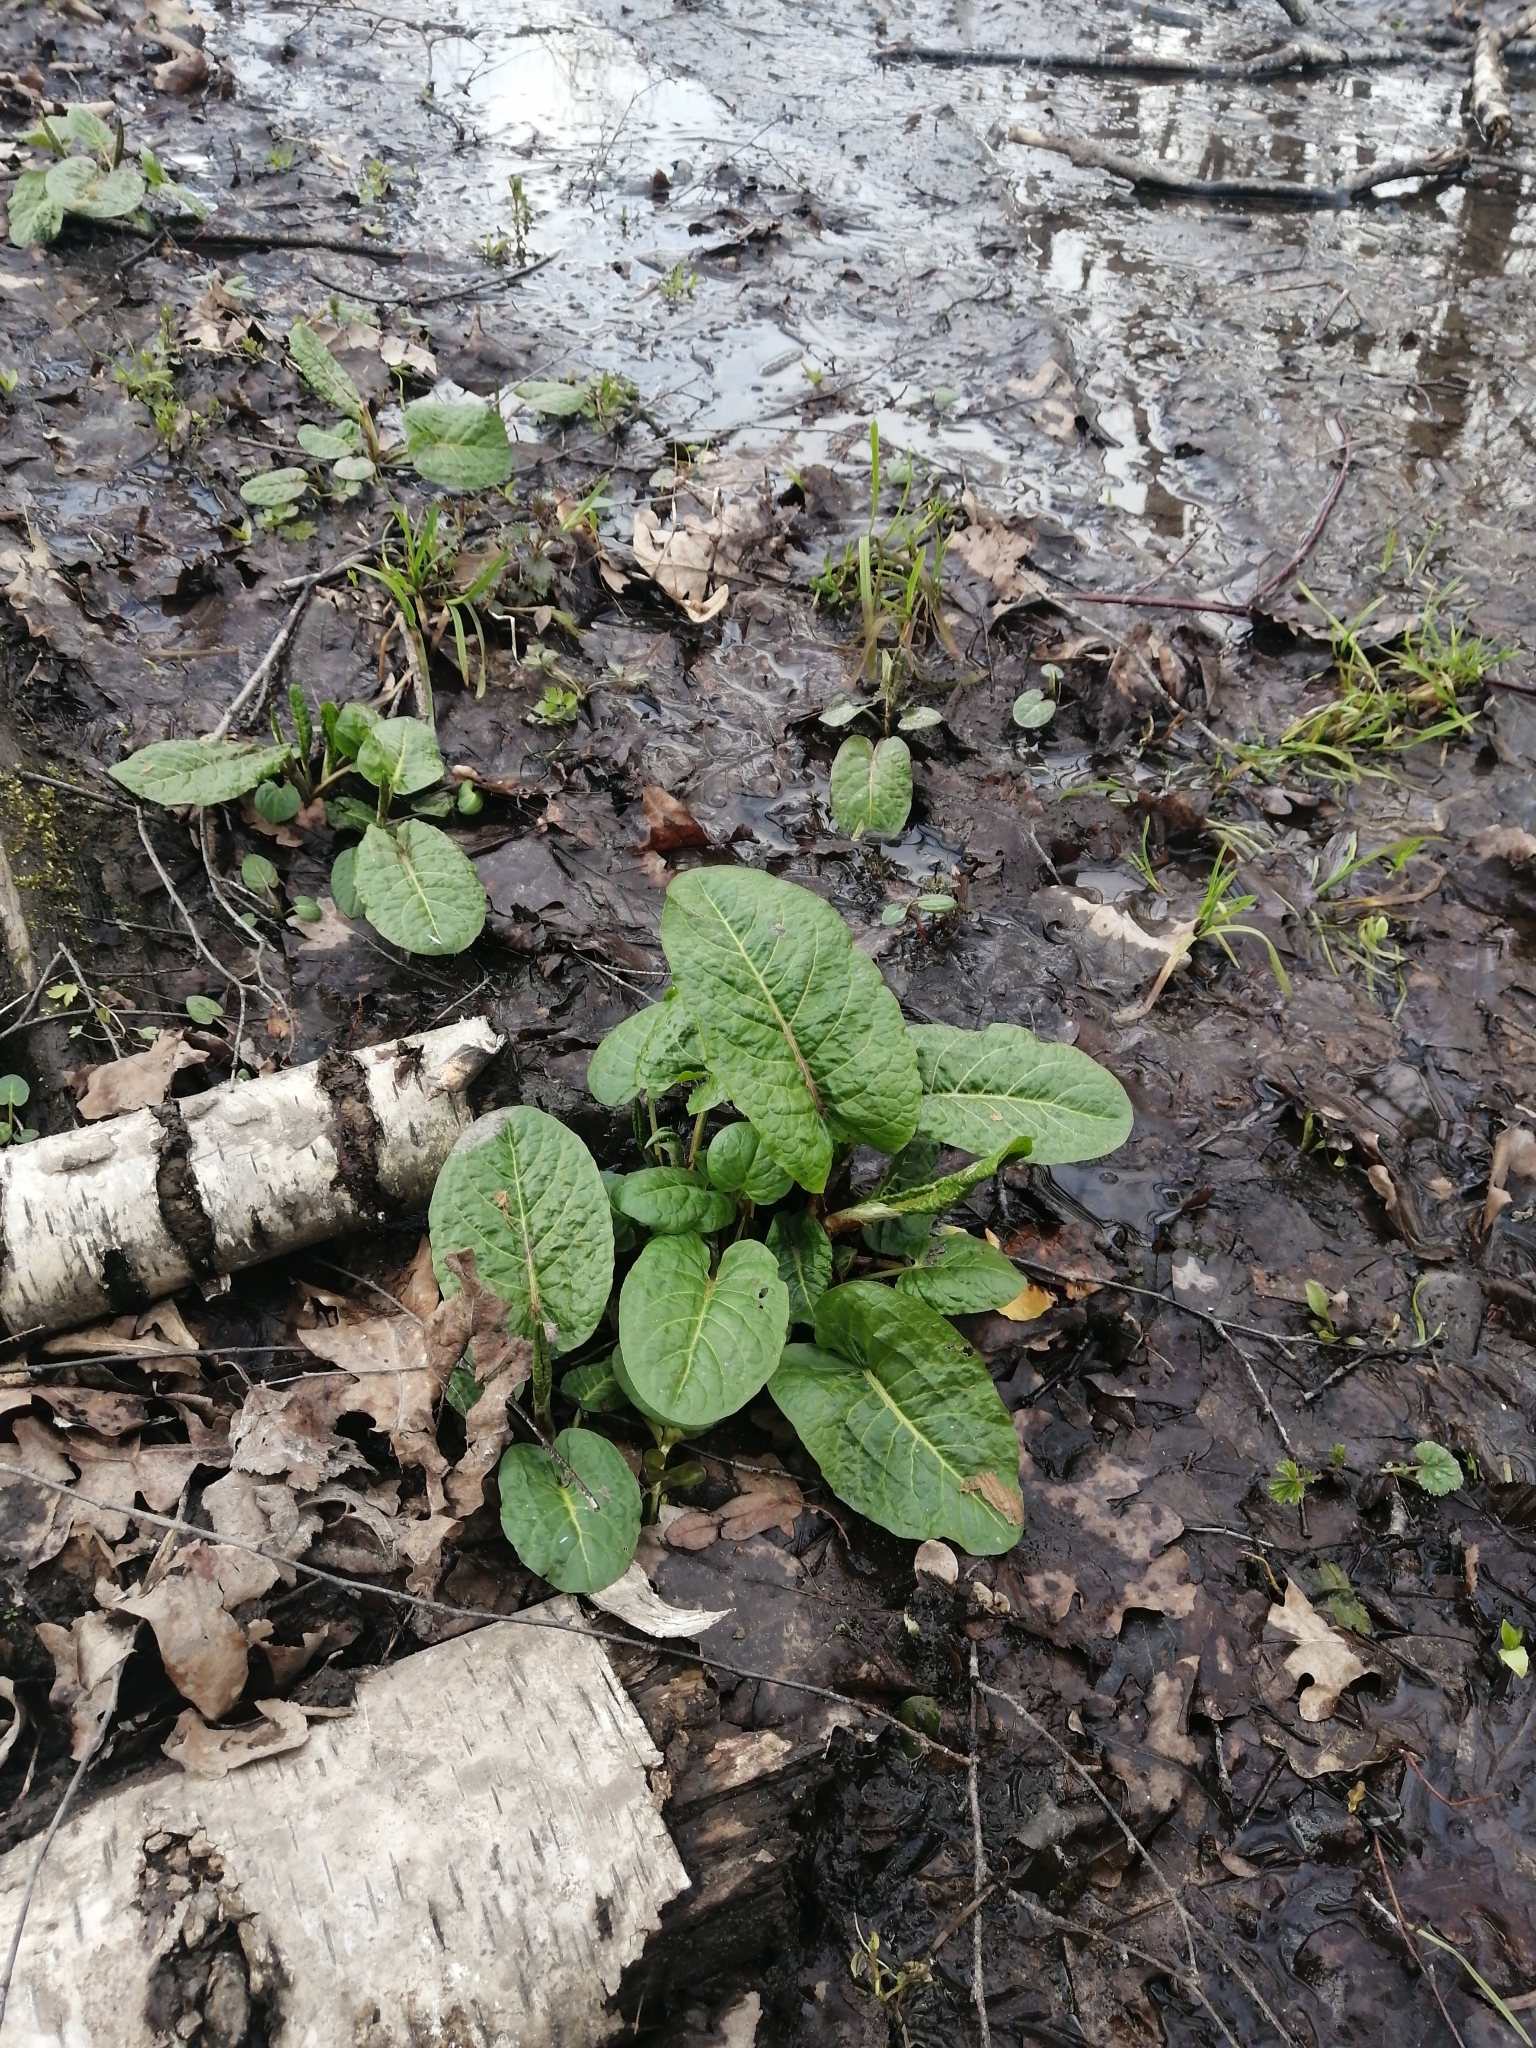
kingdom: Plantae
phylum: Tracheophyta
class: Magnoliopsida
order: Caryophyllales
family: Polygonaceae
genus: Rumex
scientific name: Rumex obtusifolius
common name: Bitter dock
